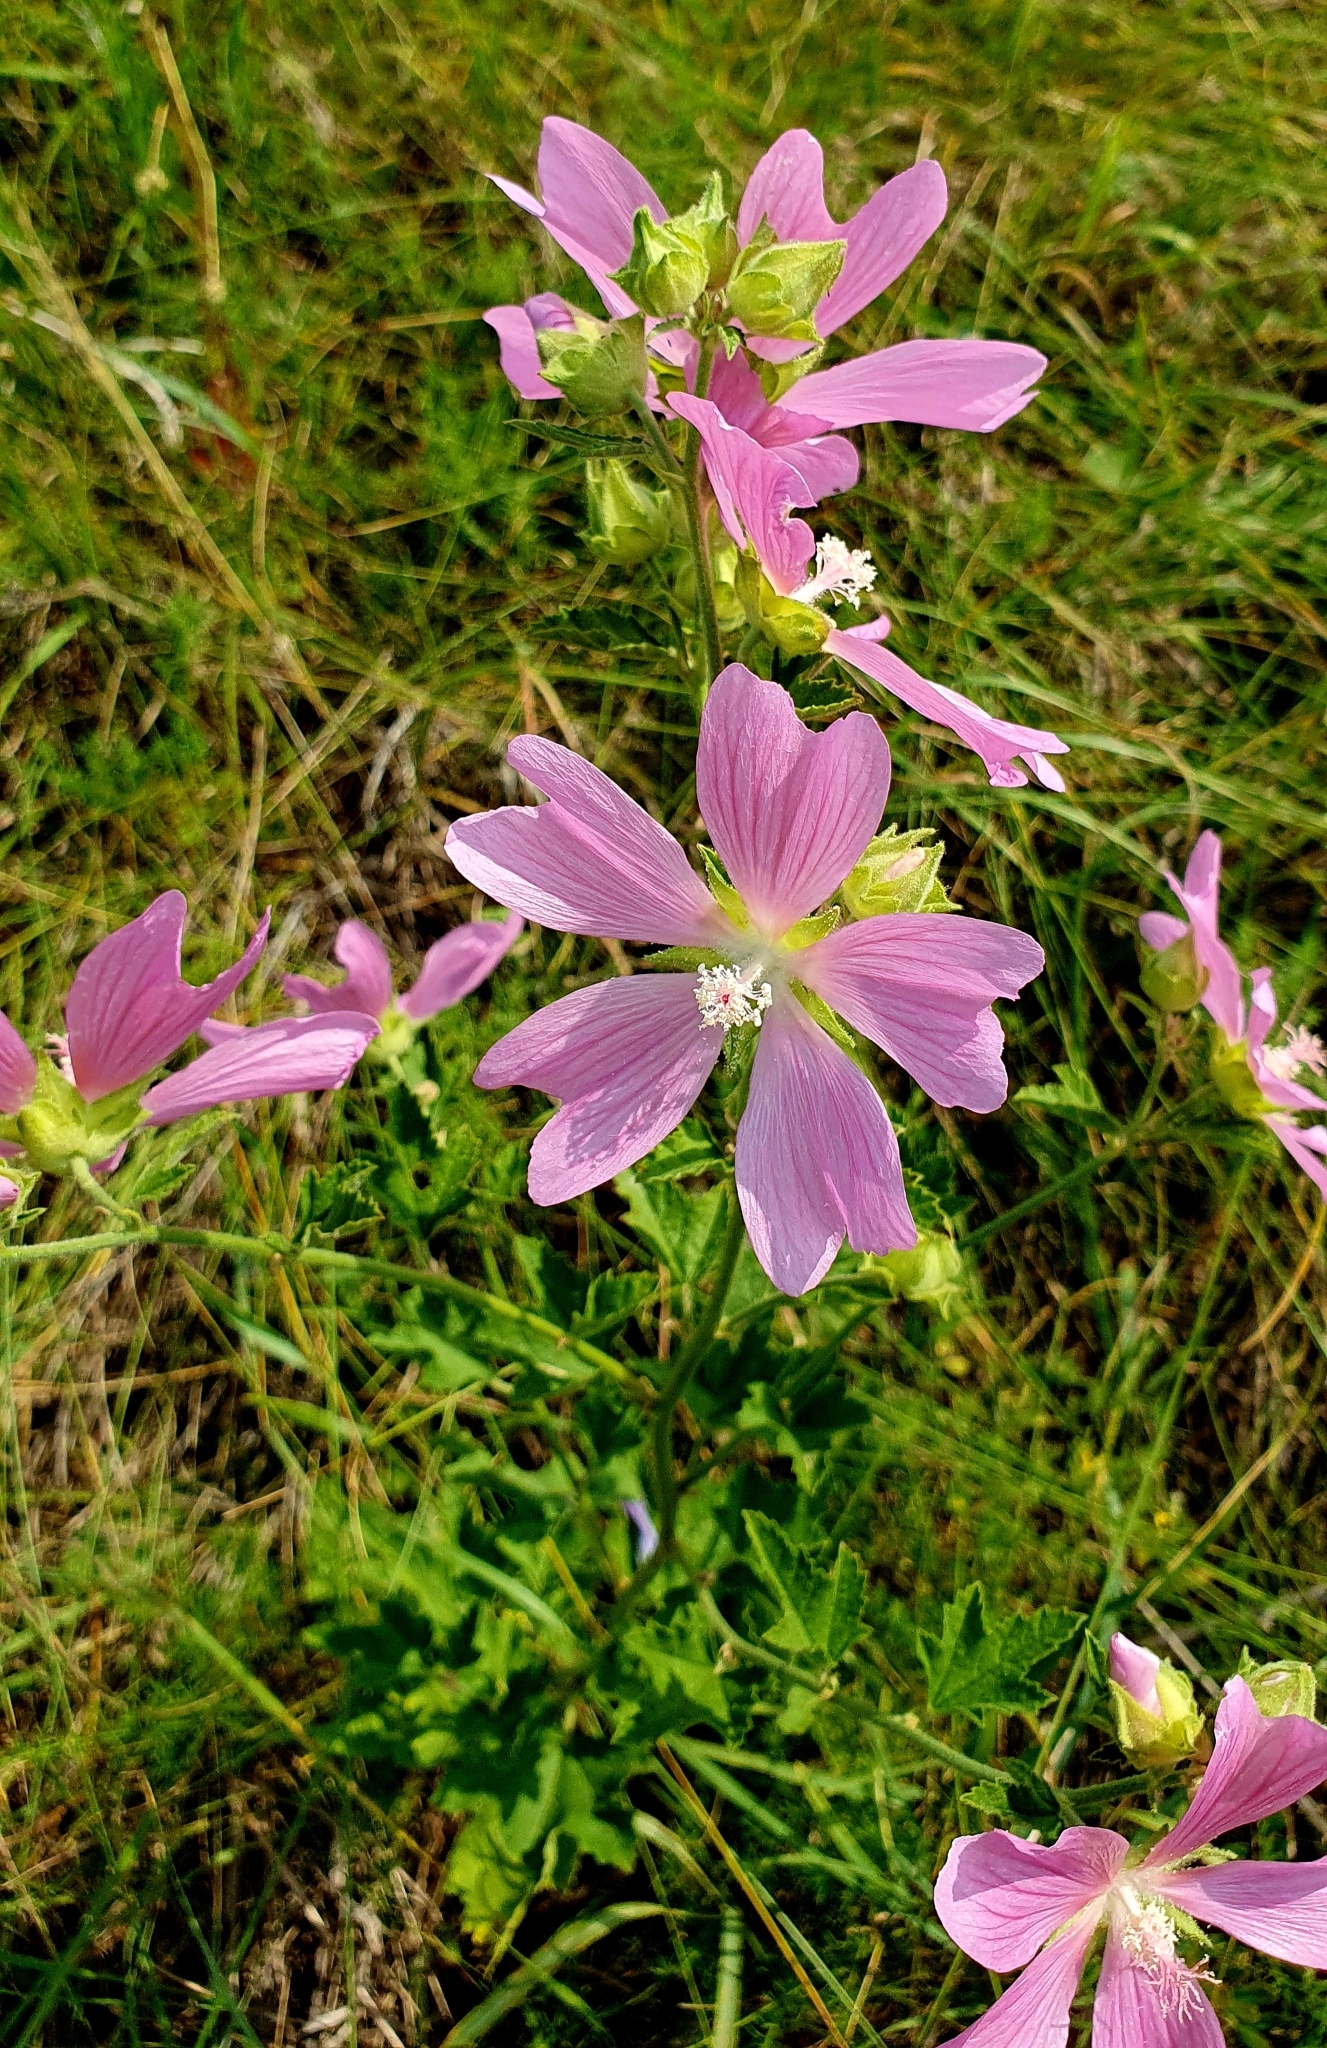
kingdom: Plantae
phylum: Tracheophyta
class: Magnoliopsida
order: Malvales
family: Malvaceae
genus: Malva
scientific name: Malva thuringiaca
